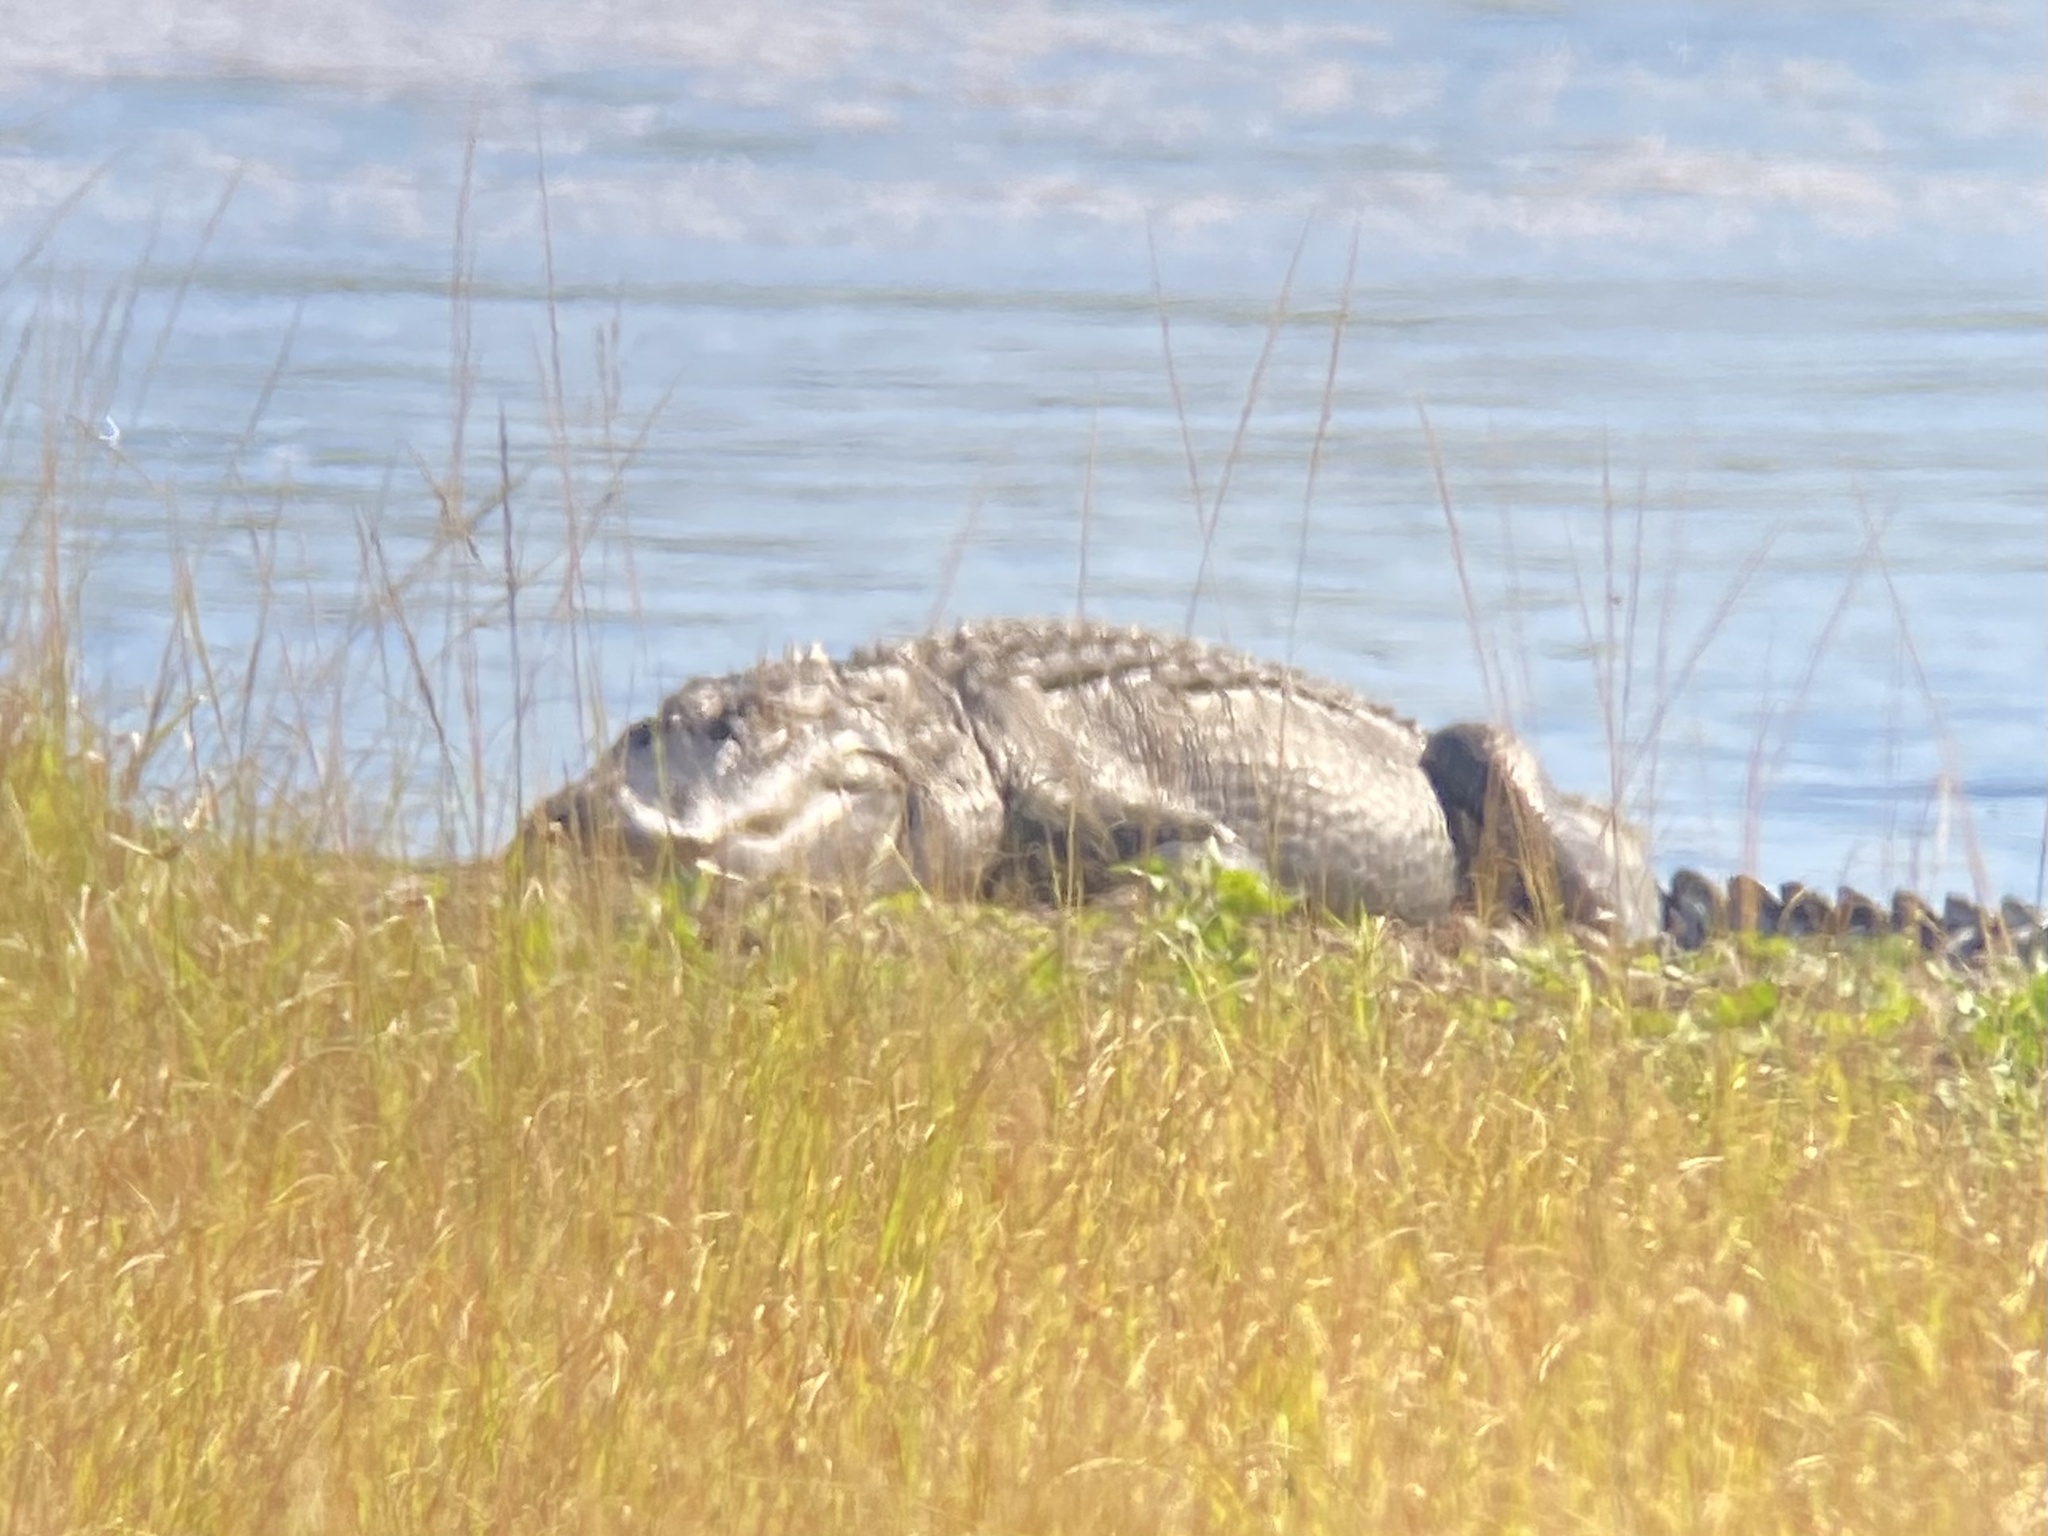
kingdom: Animalia
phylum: Chordata
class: Crocodylia
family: Alligatoridae
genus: Alligator
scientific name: Alligator mississippiensis
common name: American alligator
